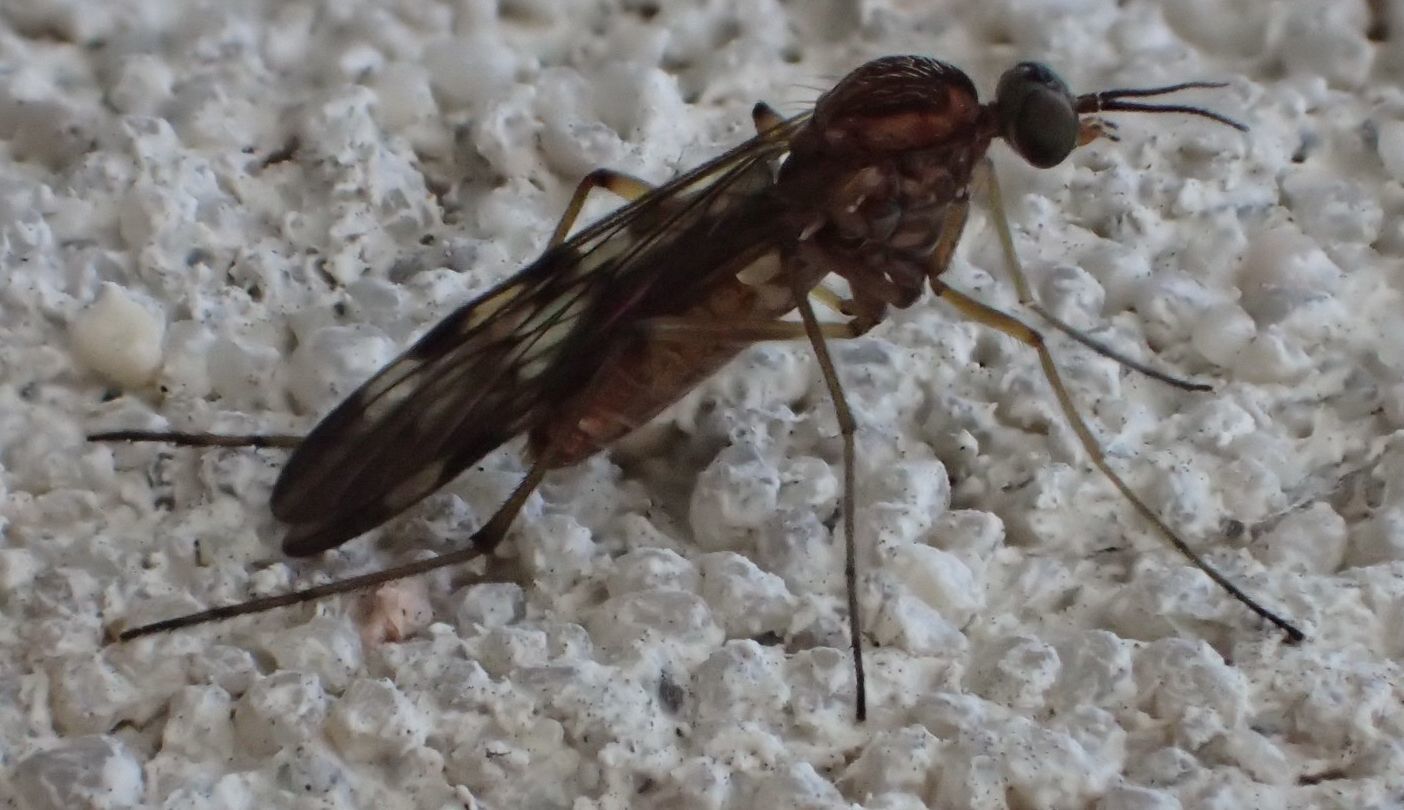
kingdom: Animalia
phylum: Arthropoda
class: Insecta
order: Diptera
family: Anisopodidae
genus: Sylvicola
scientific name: Sylvicola undulatus
